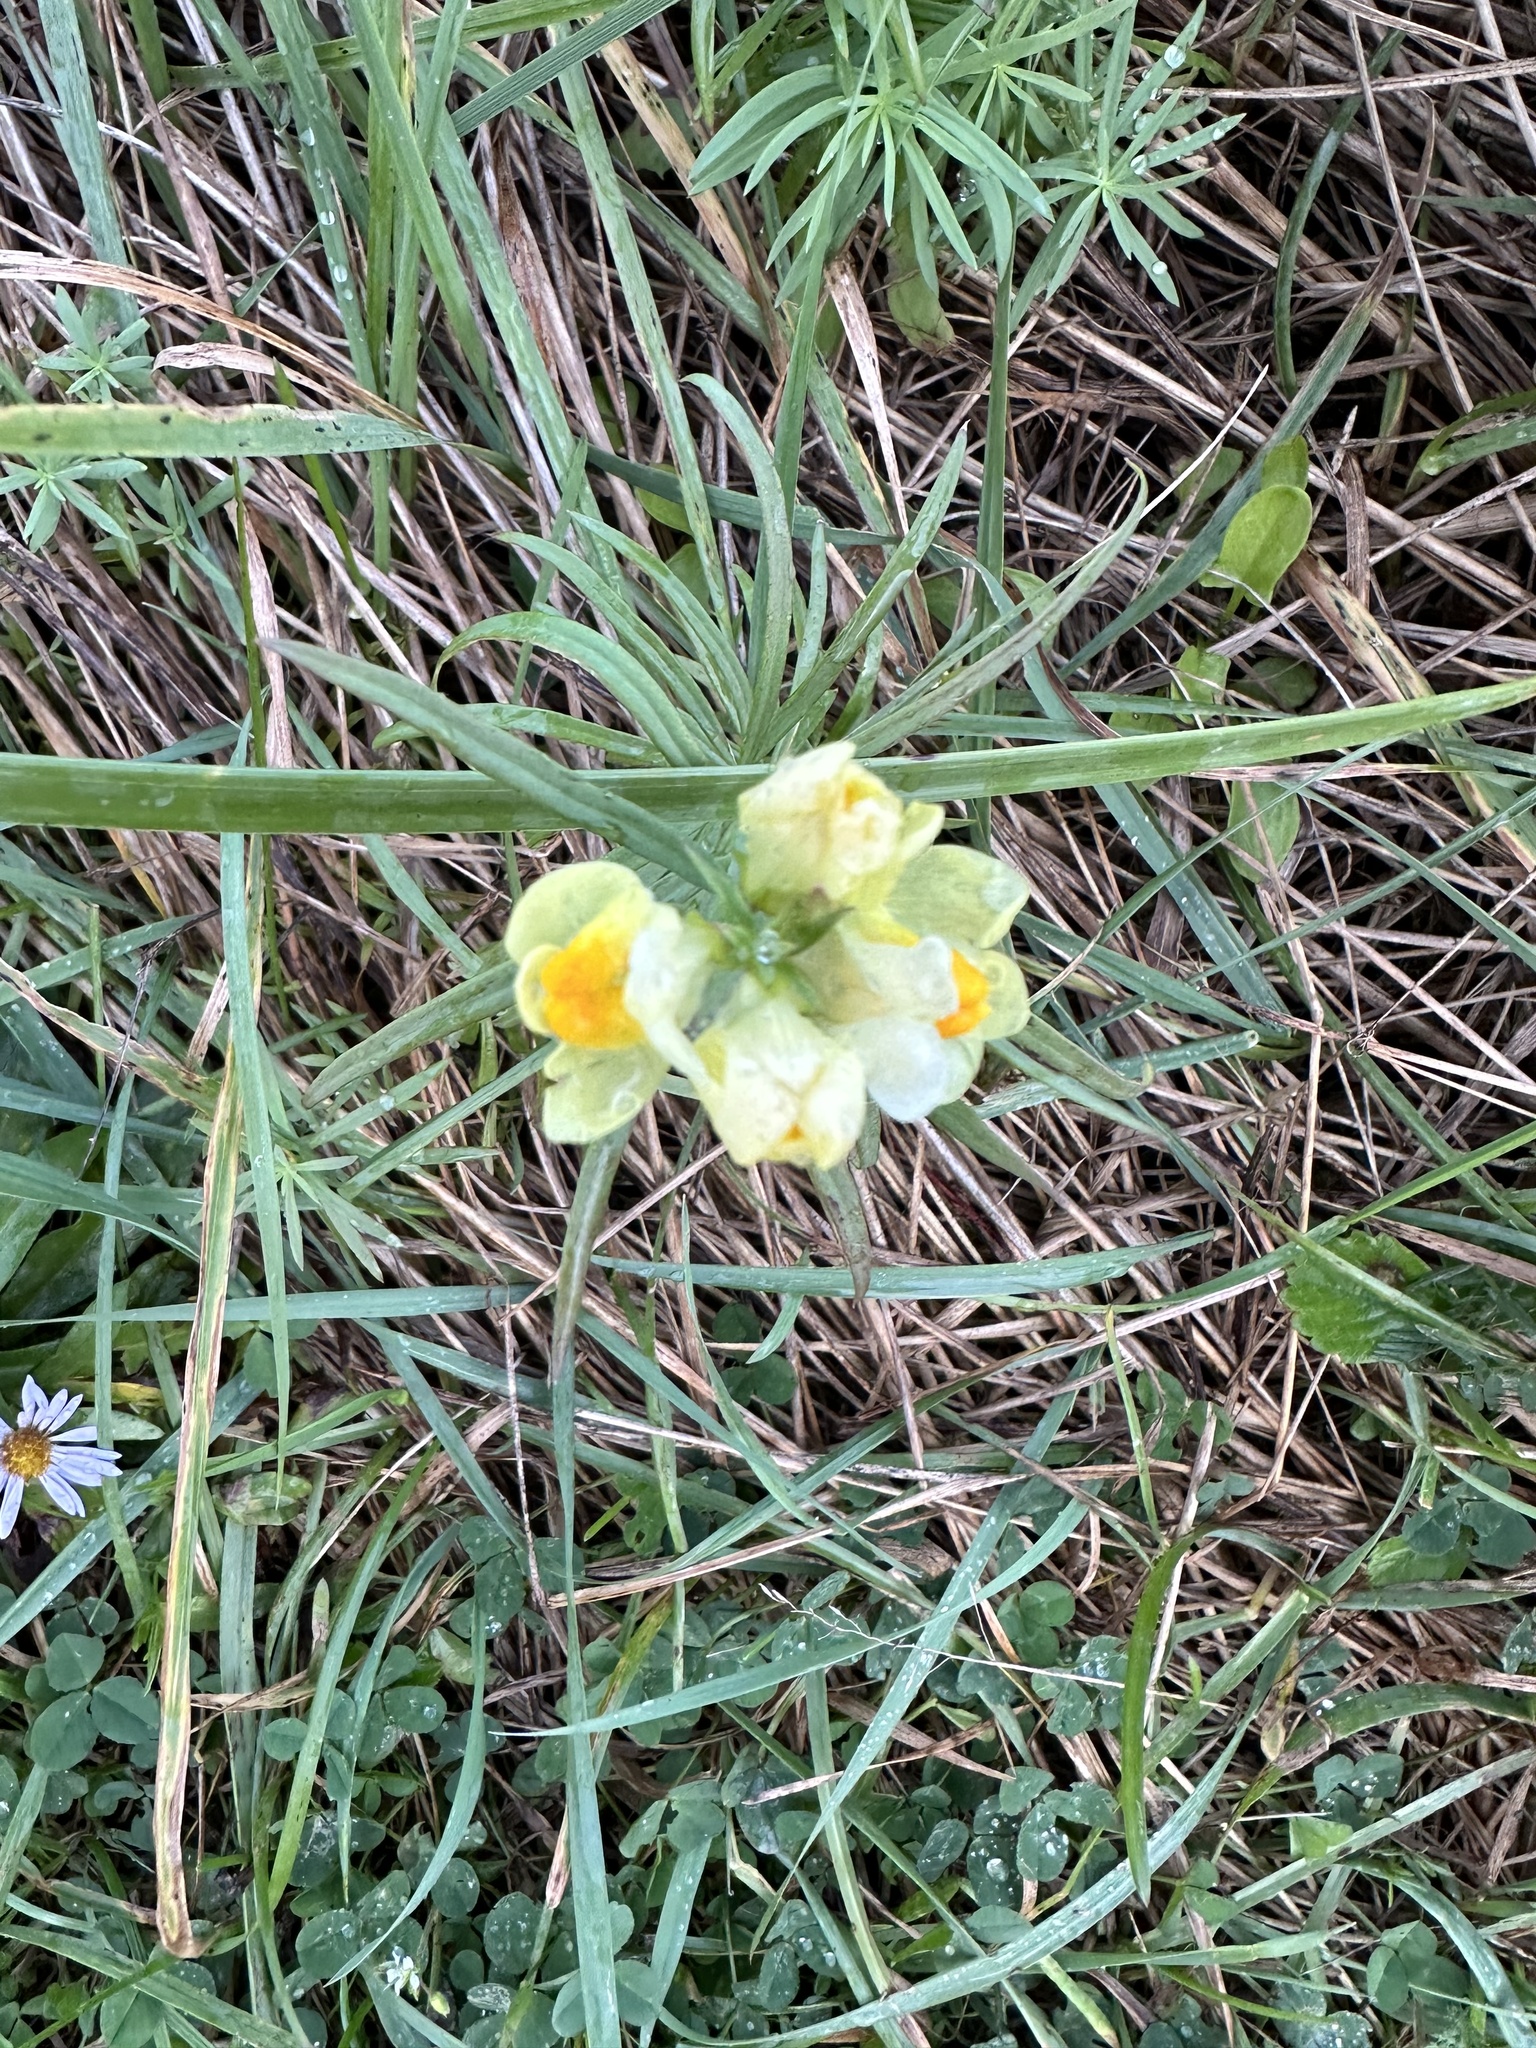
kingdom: Plantae
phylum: Tracheophyta
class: Magnoliopsida
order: Lamiales
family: Plantaginaceae
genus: Linaria
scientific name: Linaria vulgaris
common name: Butter and eggs
